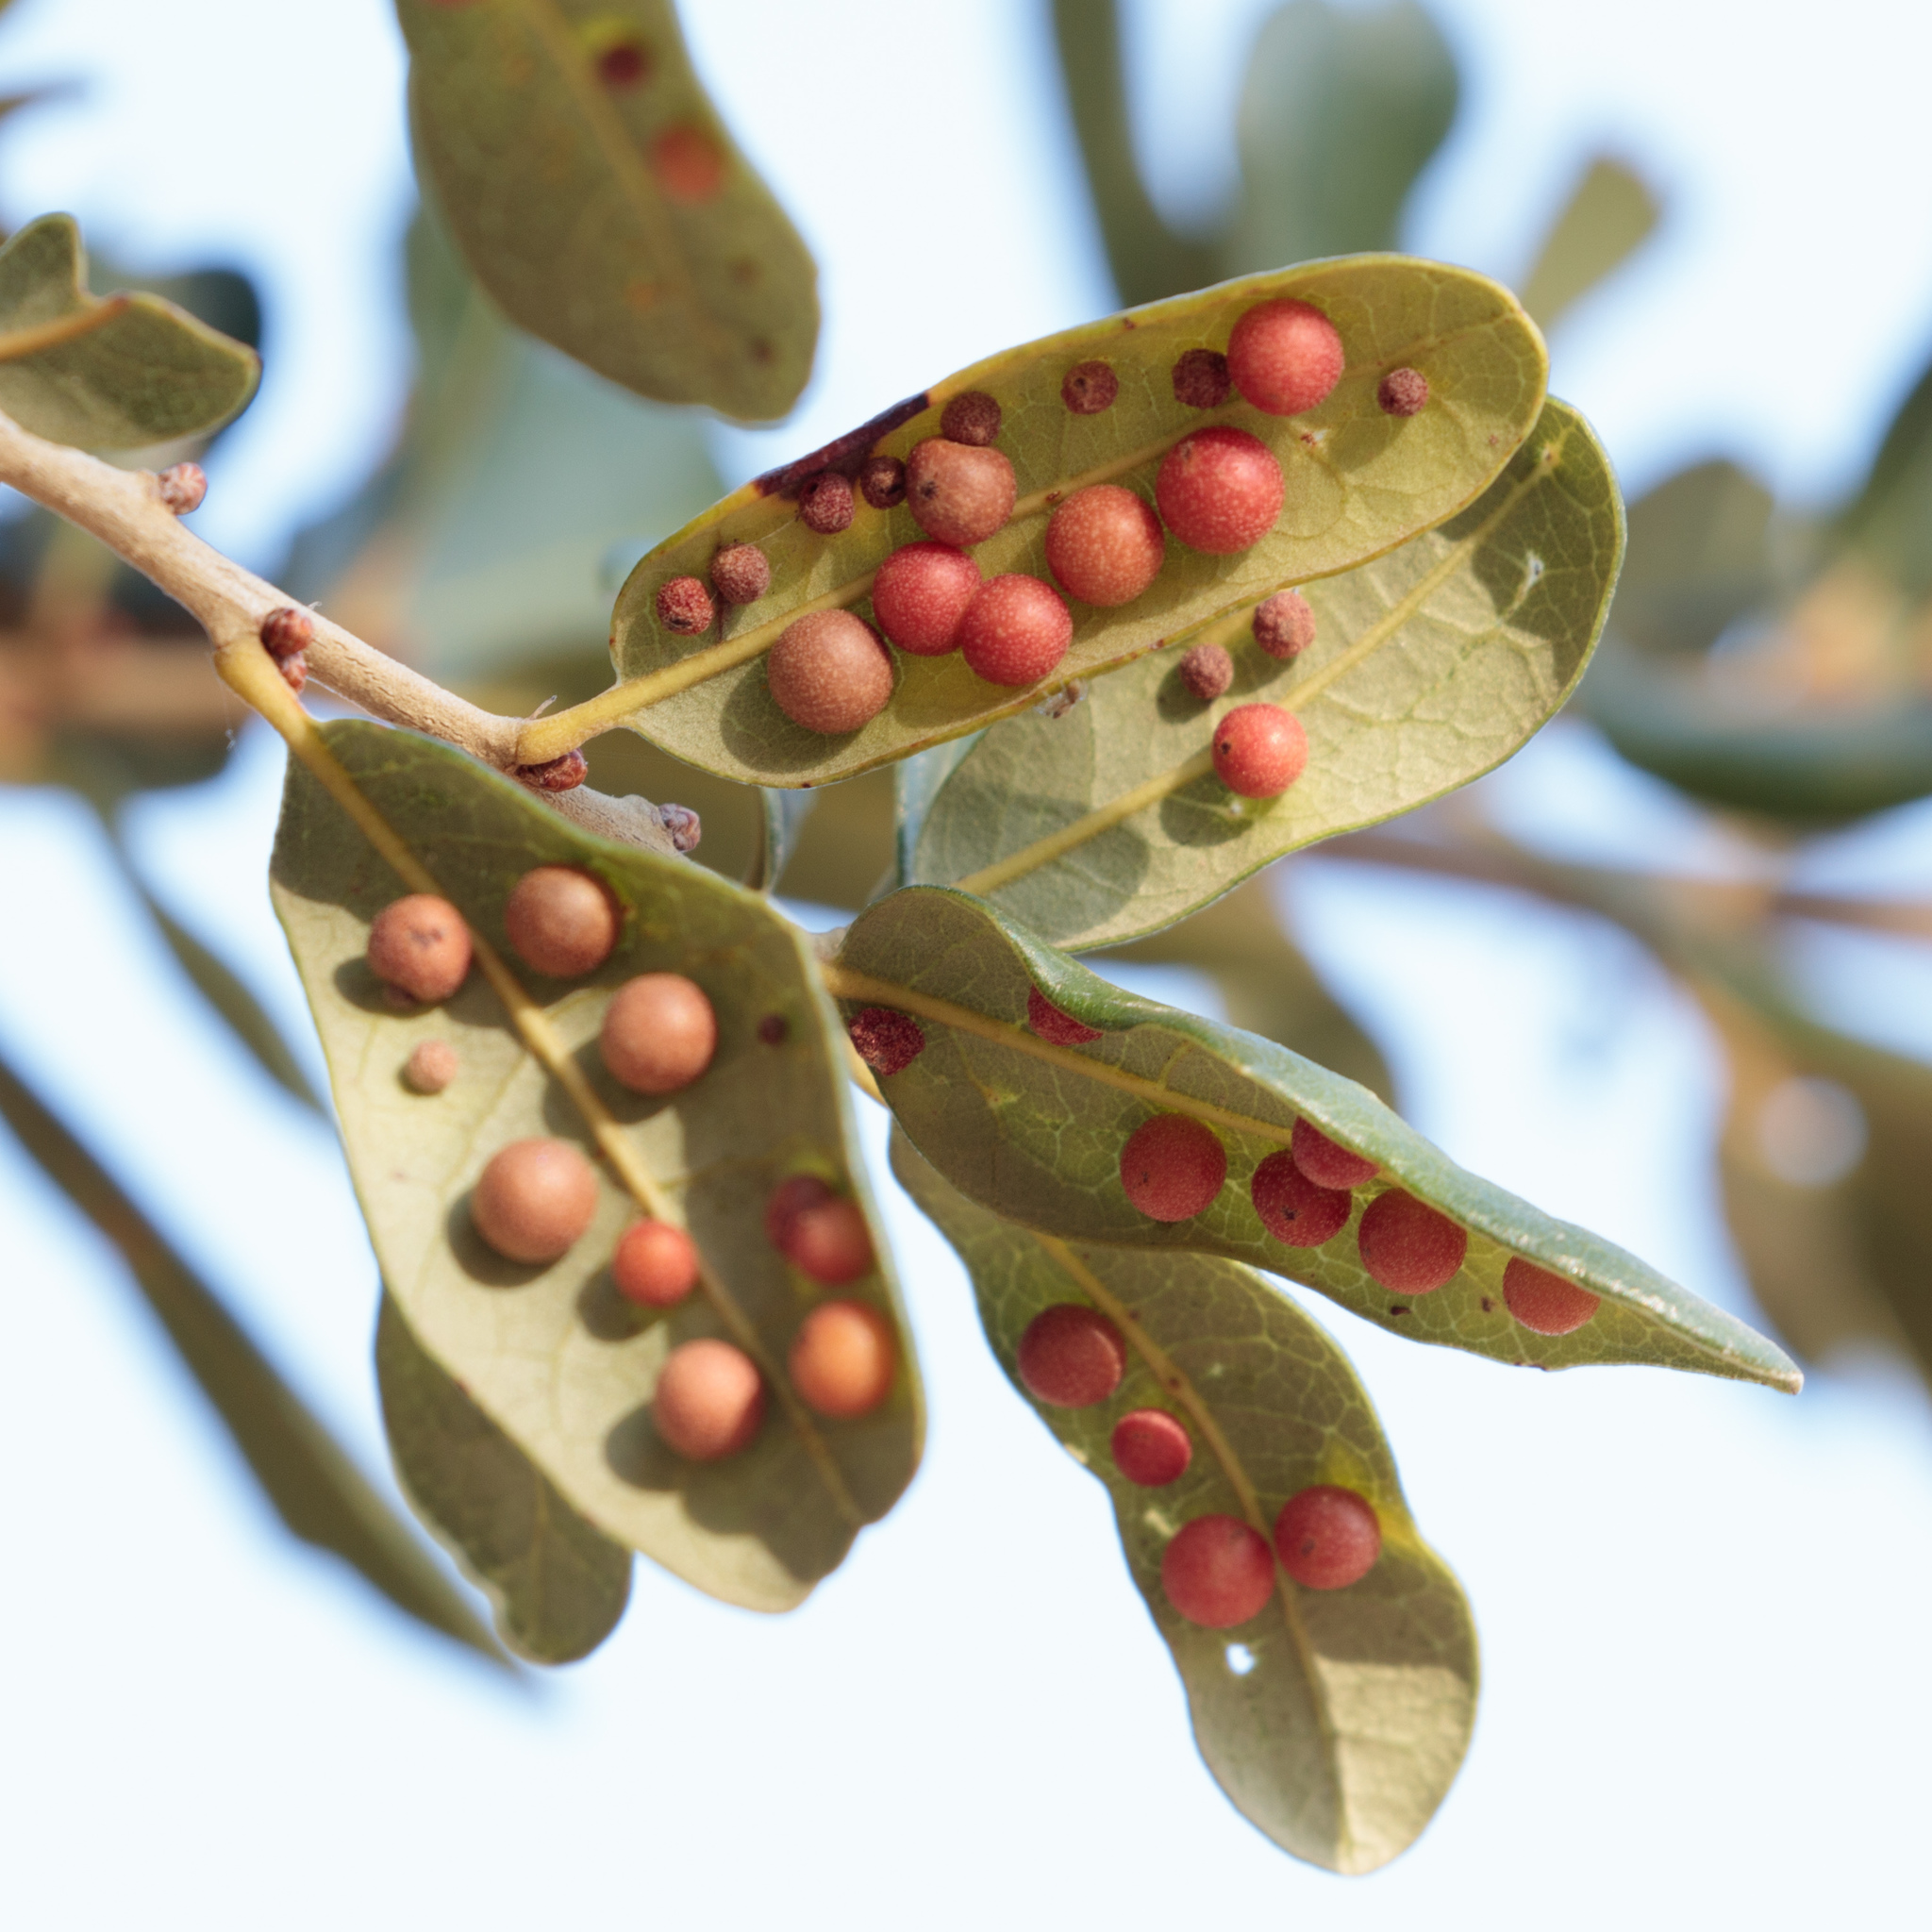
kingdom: Animalia
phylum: Arthropoda
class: Insecta
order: Hymenoptera
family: Cynipidae
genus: Belonocnema
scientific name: Belonocnema kinseyi
